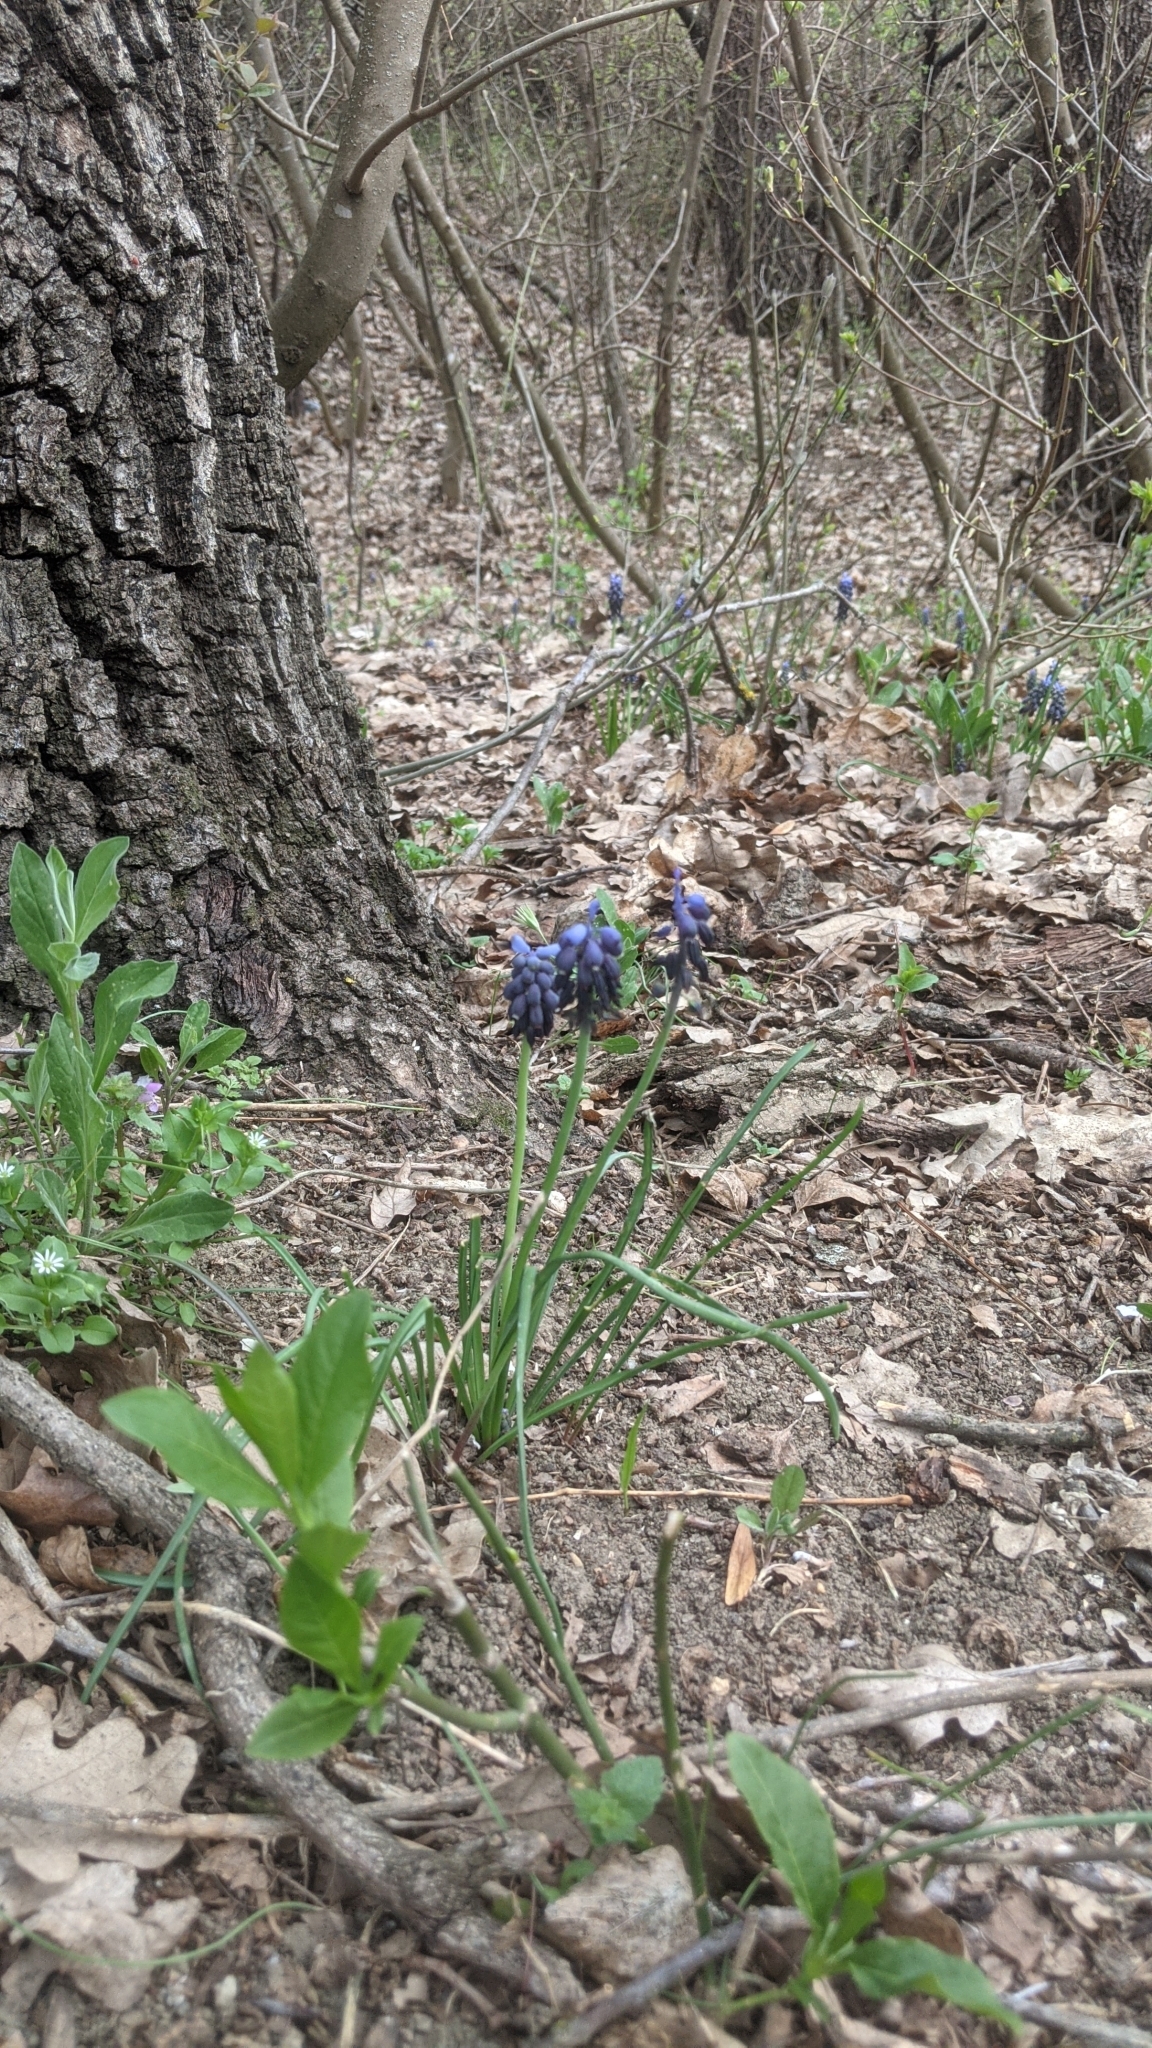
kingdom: Plantae
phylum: Tracheophyta
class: Liliopsida
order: Asparagales
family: Asparagaceae
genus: Muscari
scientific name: Muscari neglectum
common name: Grape-hyacinth
